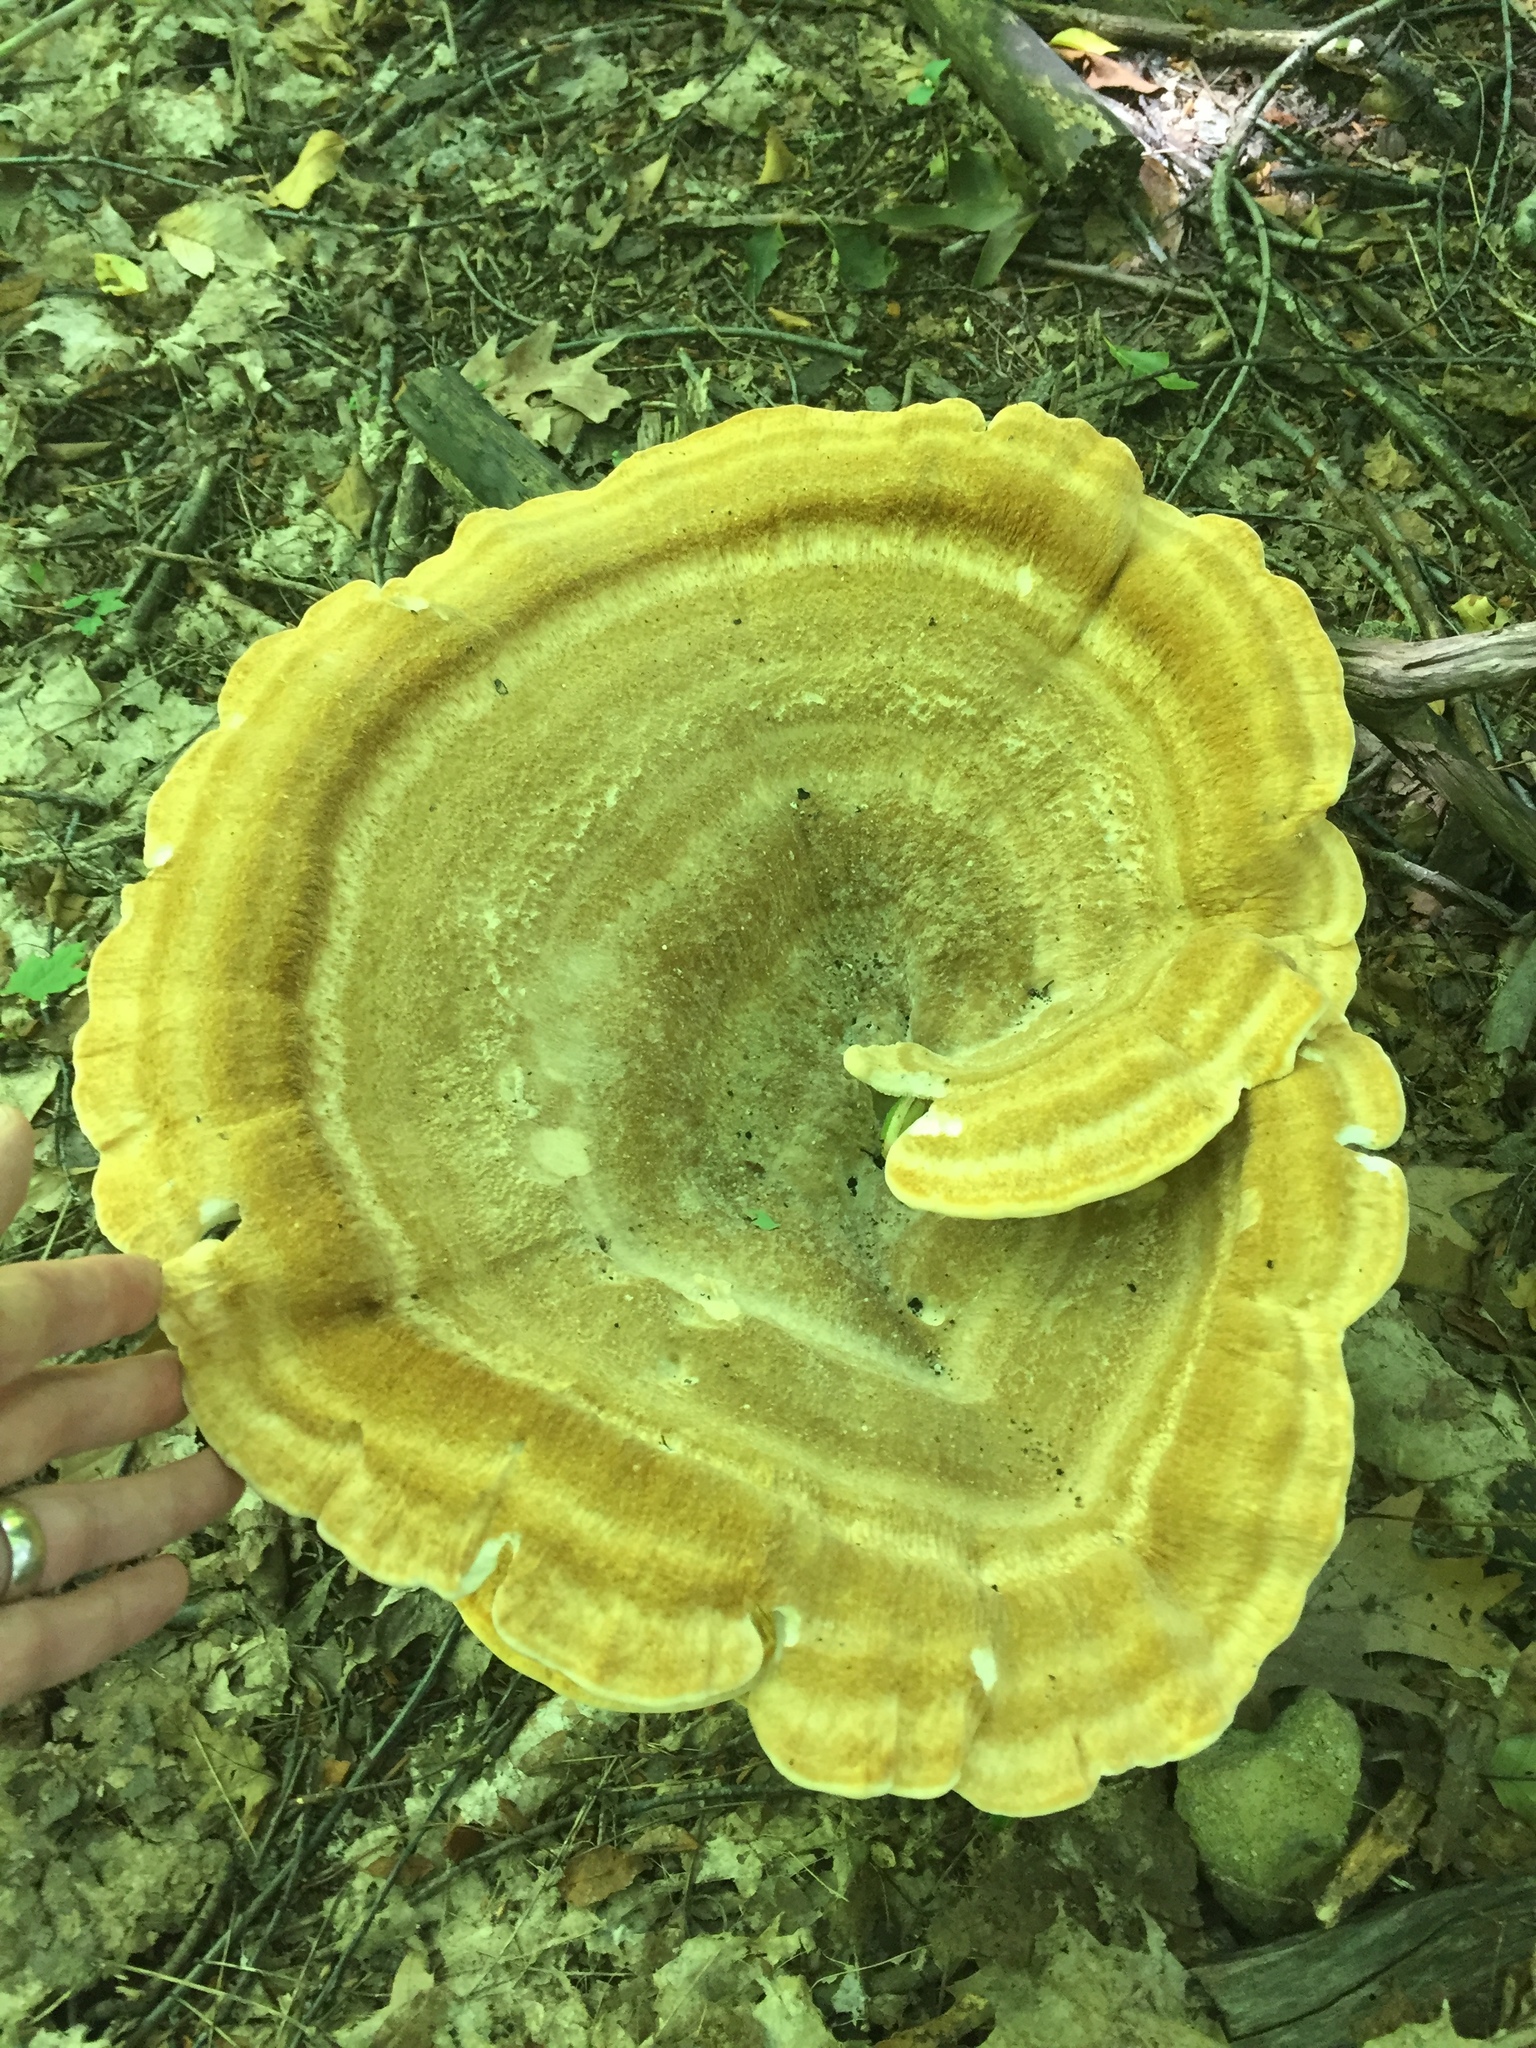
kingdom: Fungi
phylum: Basidiomycota
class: Agaricomycetes
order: Russulales
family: Bondarzewiaceae
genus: Bondarzewia
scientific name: Bondarzewia berkeleyi
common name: Berkeley's polypore
